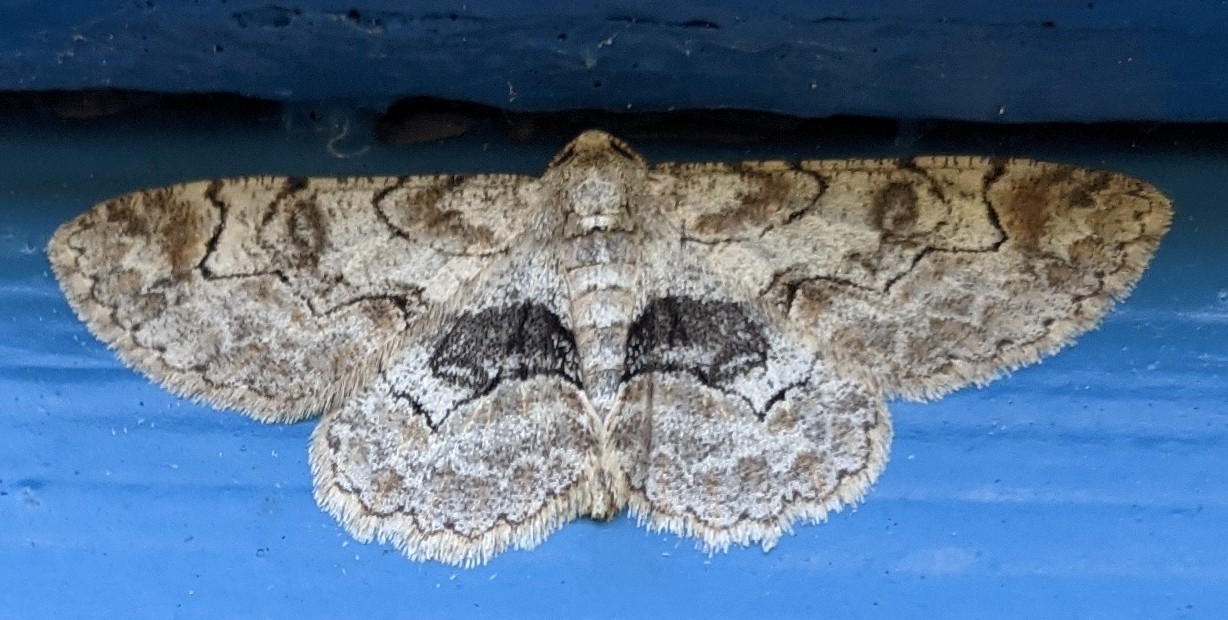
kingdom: Animalia
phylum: Arthropoda
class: Insecta
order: Lepidoptera
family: Geometridae
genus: Iridopsis
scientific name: Iridopsis larvaria
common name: Bent-line gray
